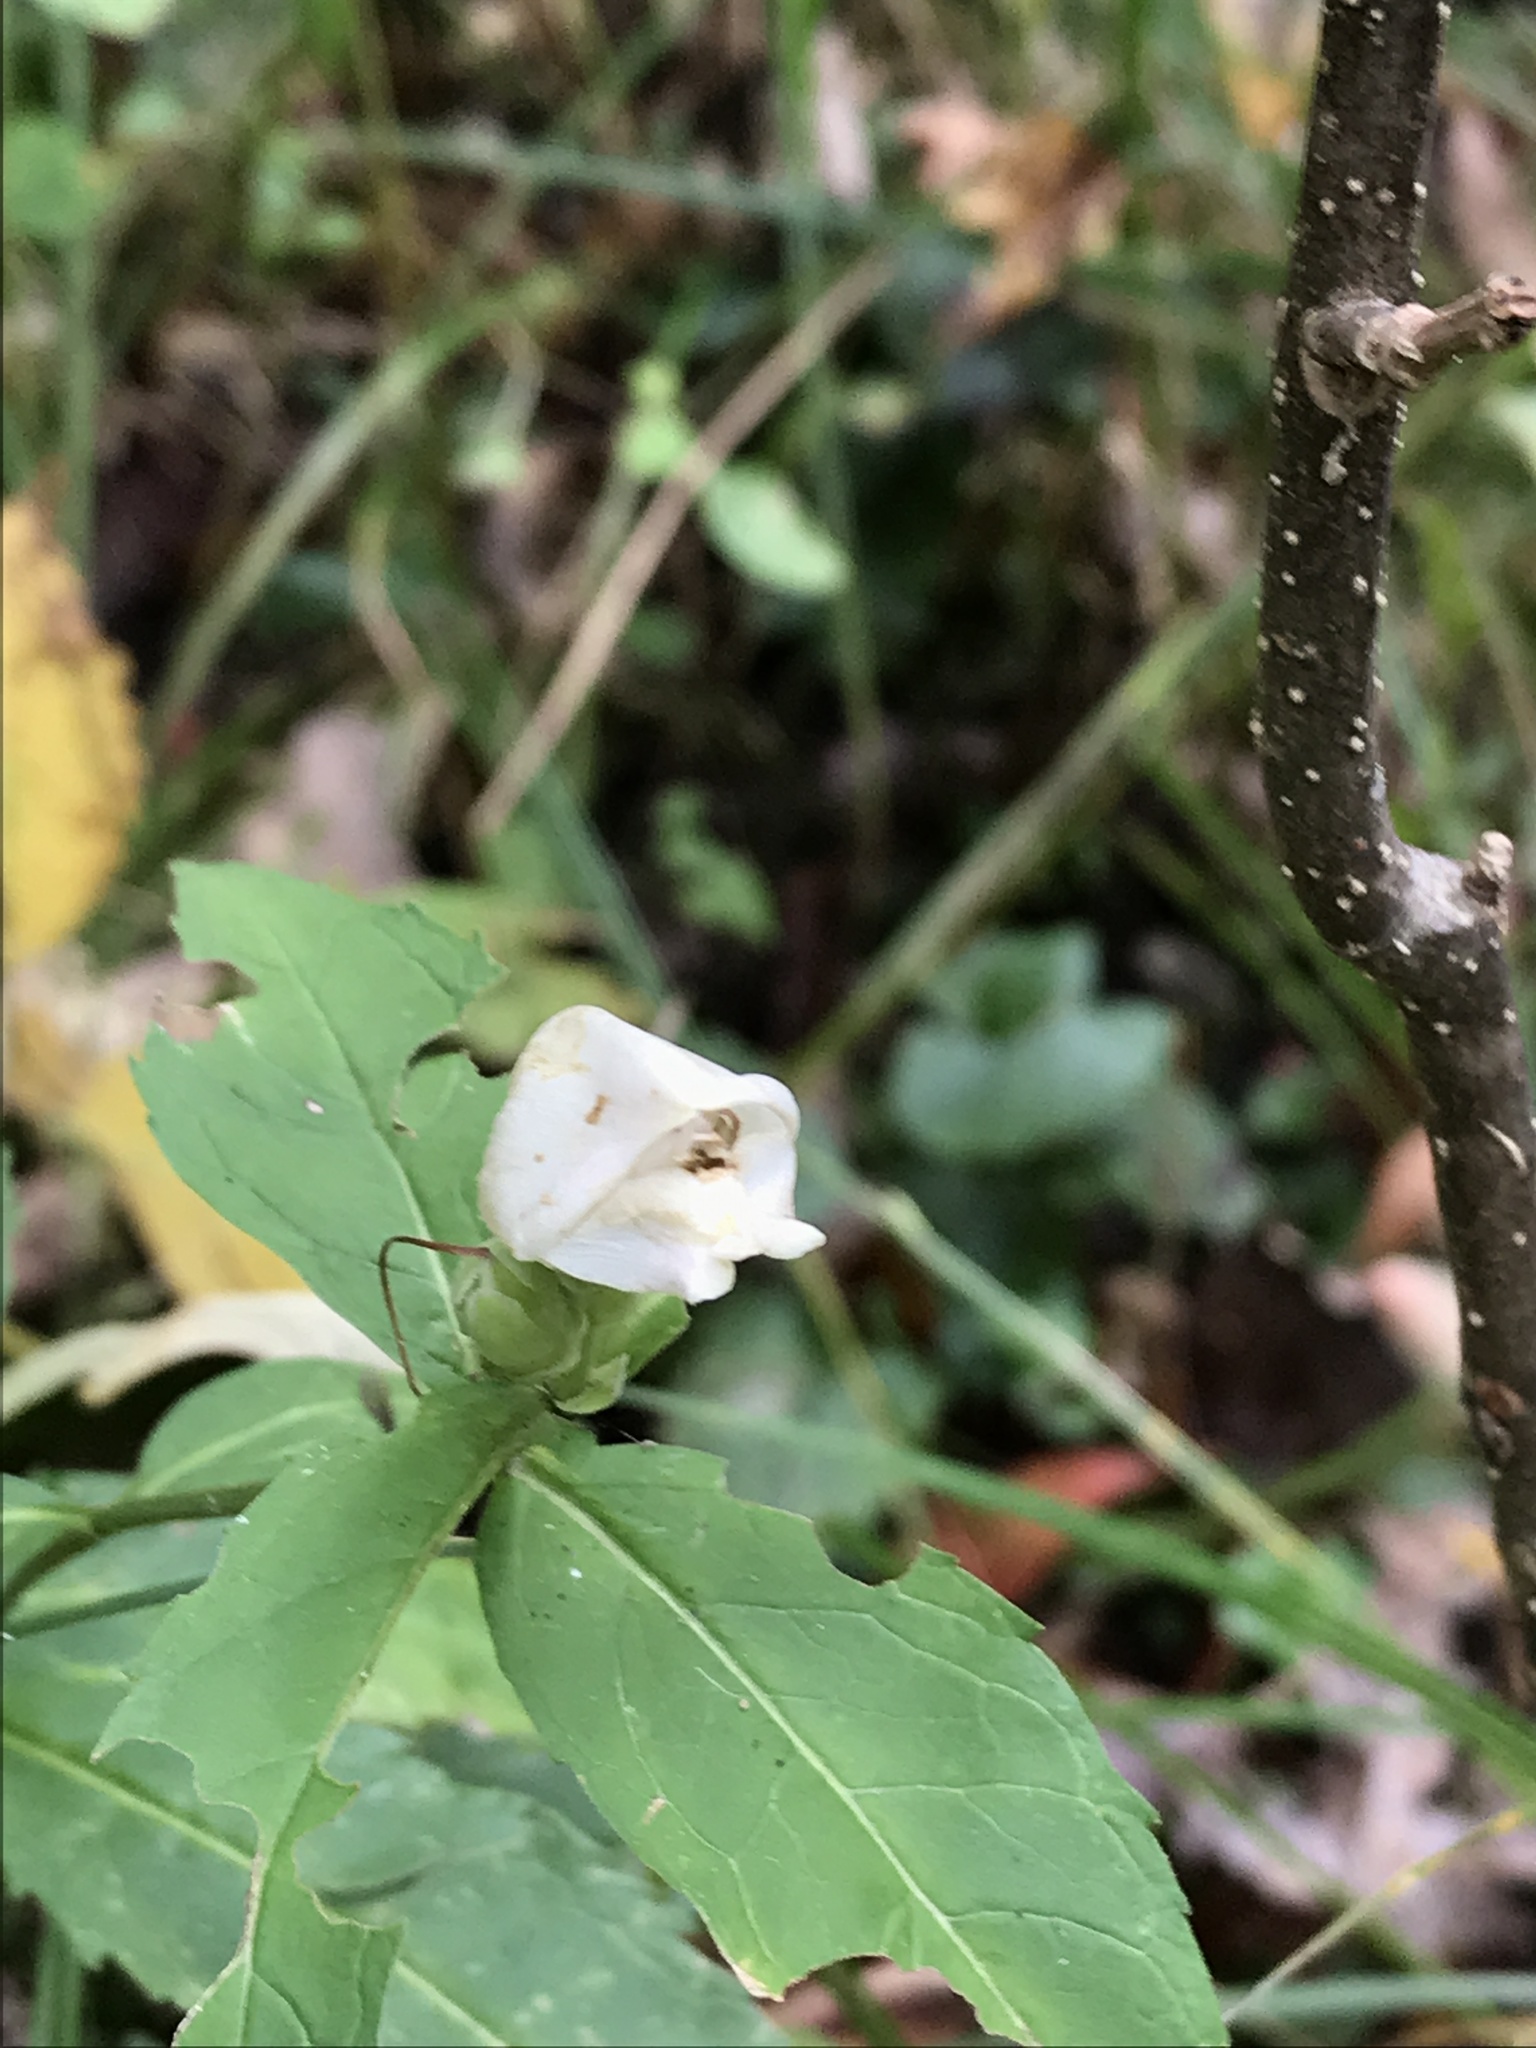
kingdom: Plantae
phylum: Tracheophyta
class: Magnoliopsida
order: Lamiales
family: Plantaginaceae
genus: Chelone
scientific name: Chelone glabra
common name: Snakehead
